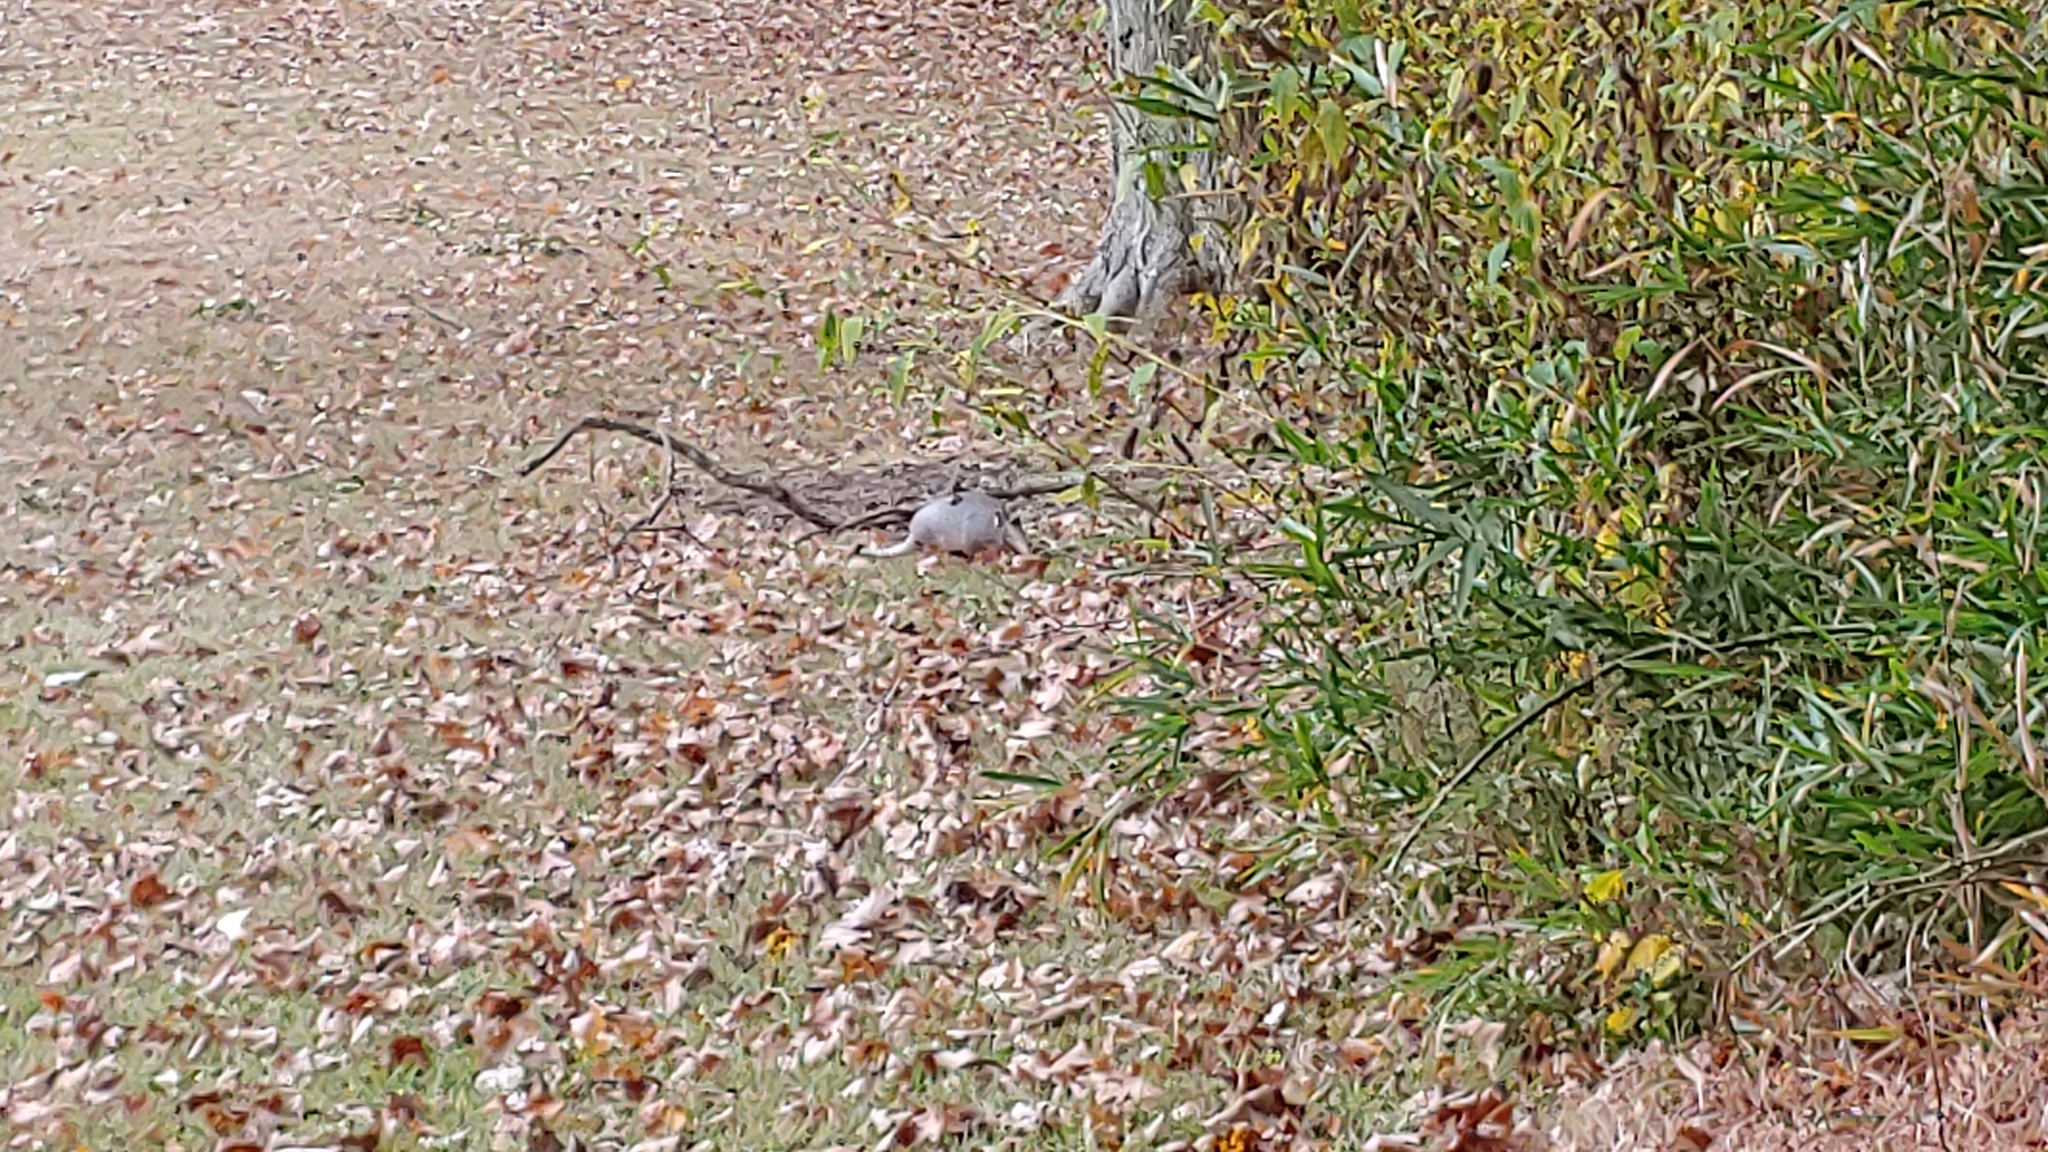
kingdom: Animalia
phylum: Chordata
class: Mammalia
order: Cingulata
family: Dasypodidae
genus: Dasypus
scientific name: Dasypus novemcinctus
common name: Nine-banded armadillo
